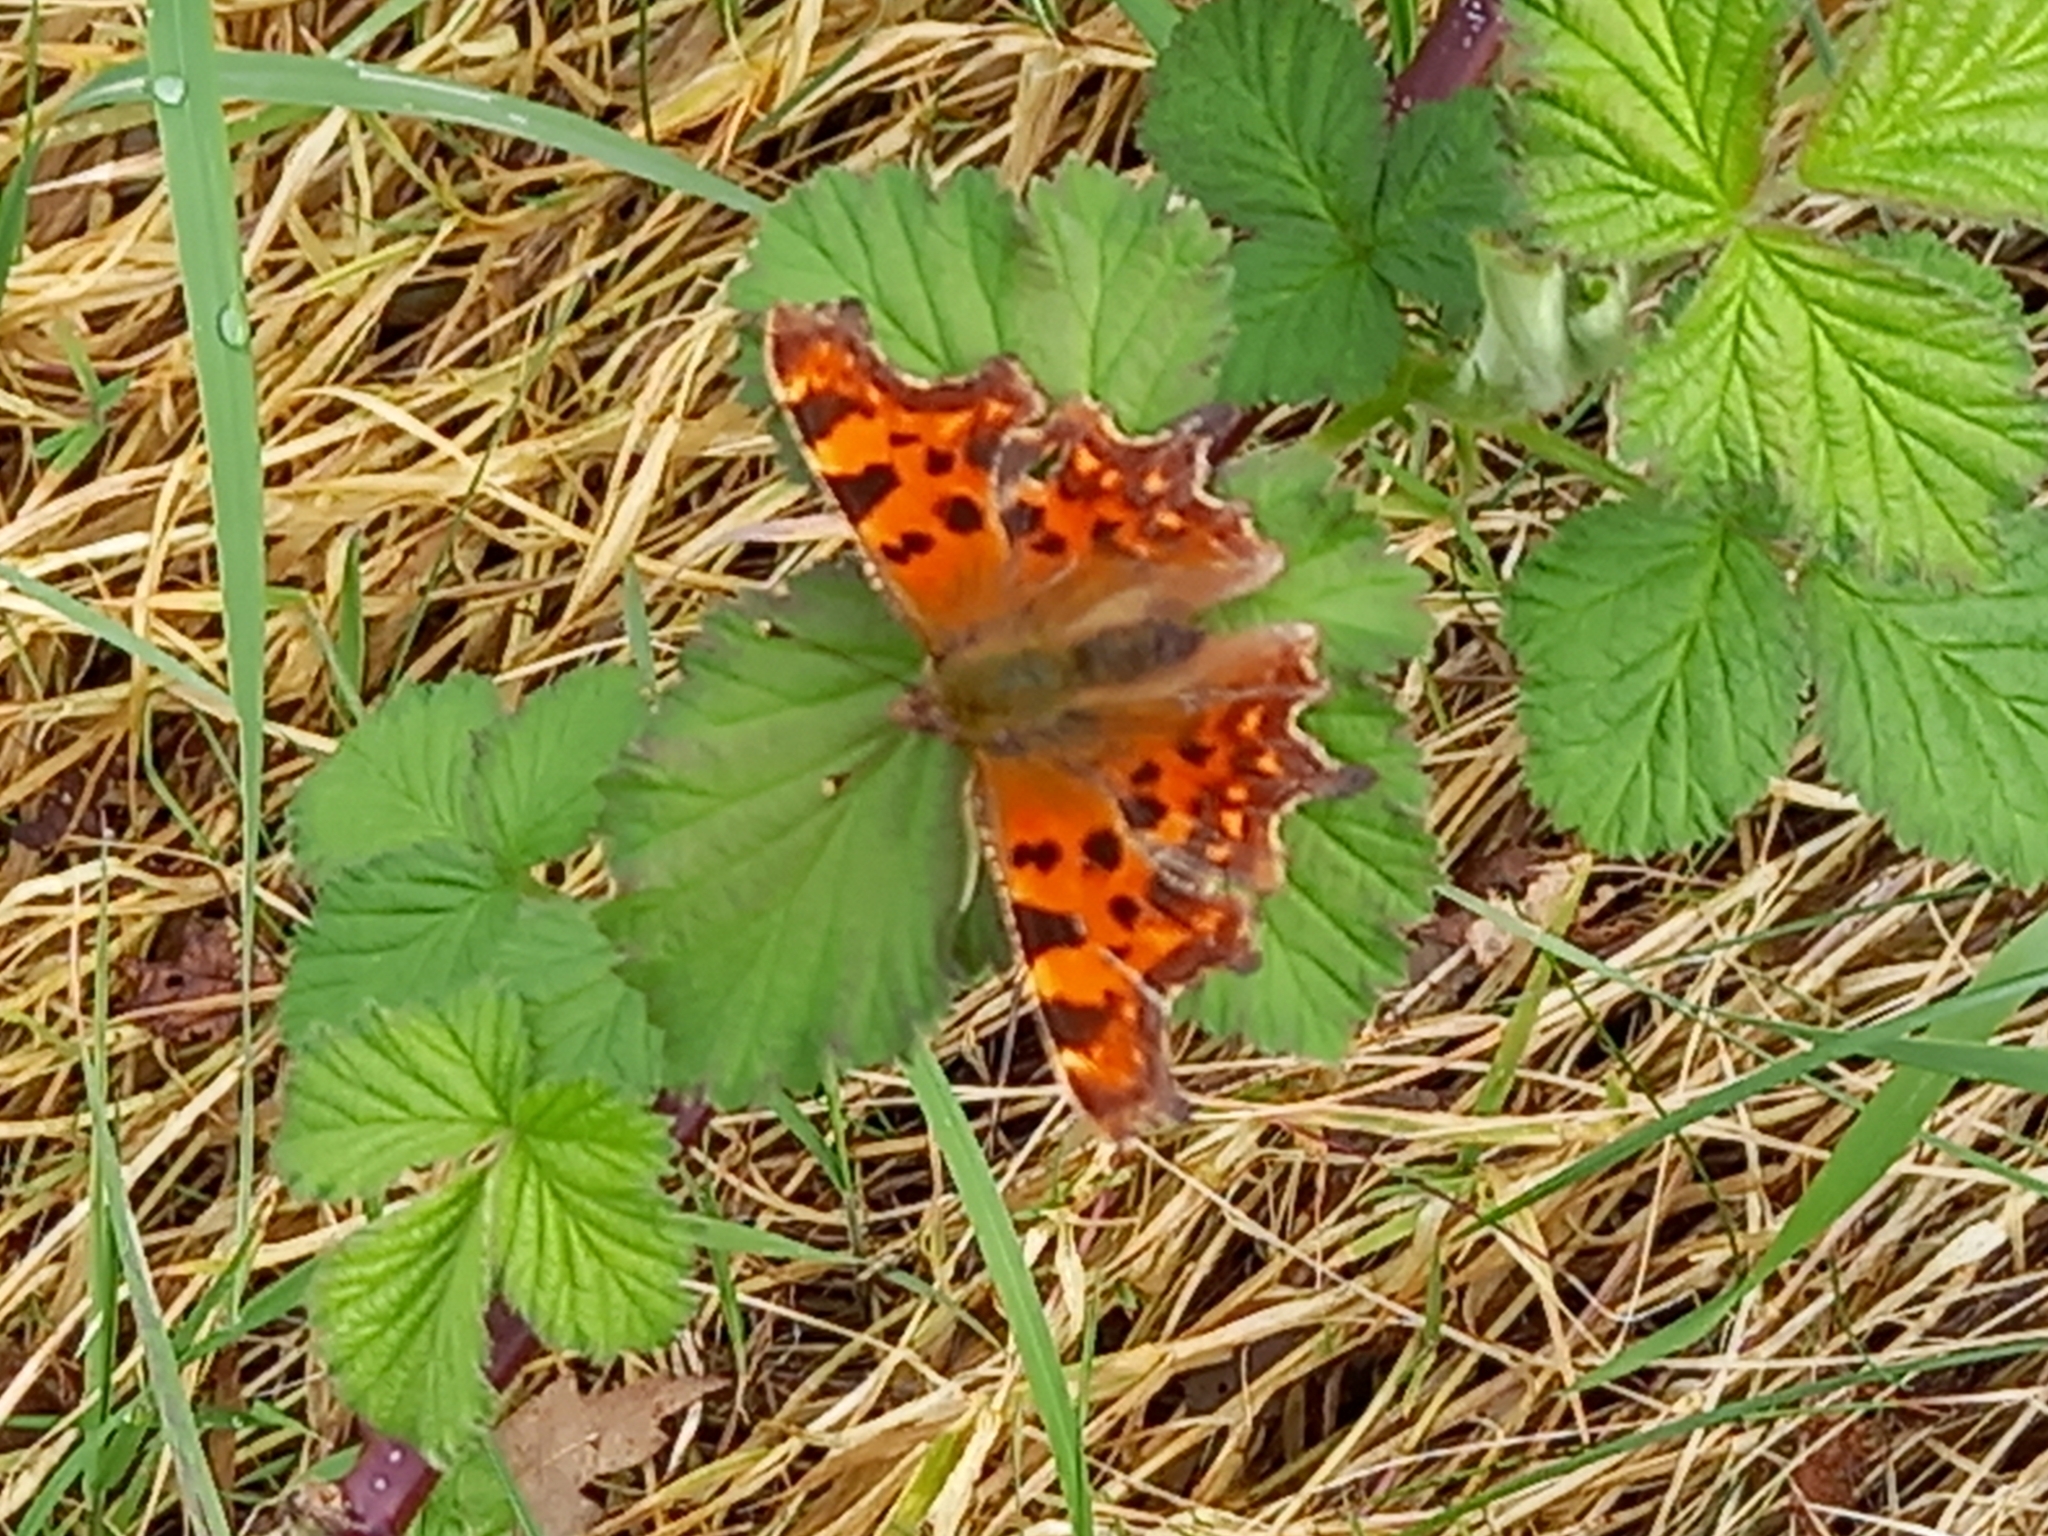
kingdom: Animalia
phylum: Arthropoda
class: Insecta
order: Lepidoptera
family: Nymphalidae
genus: Polygonia
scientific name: Polygonia c-album
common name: Comma
